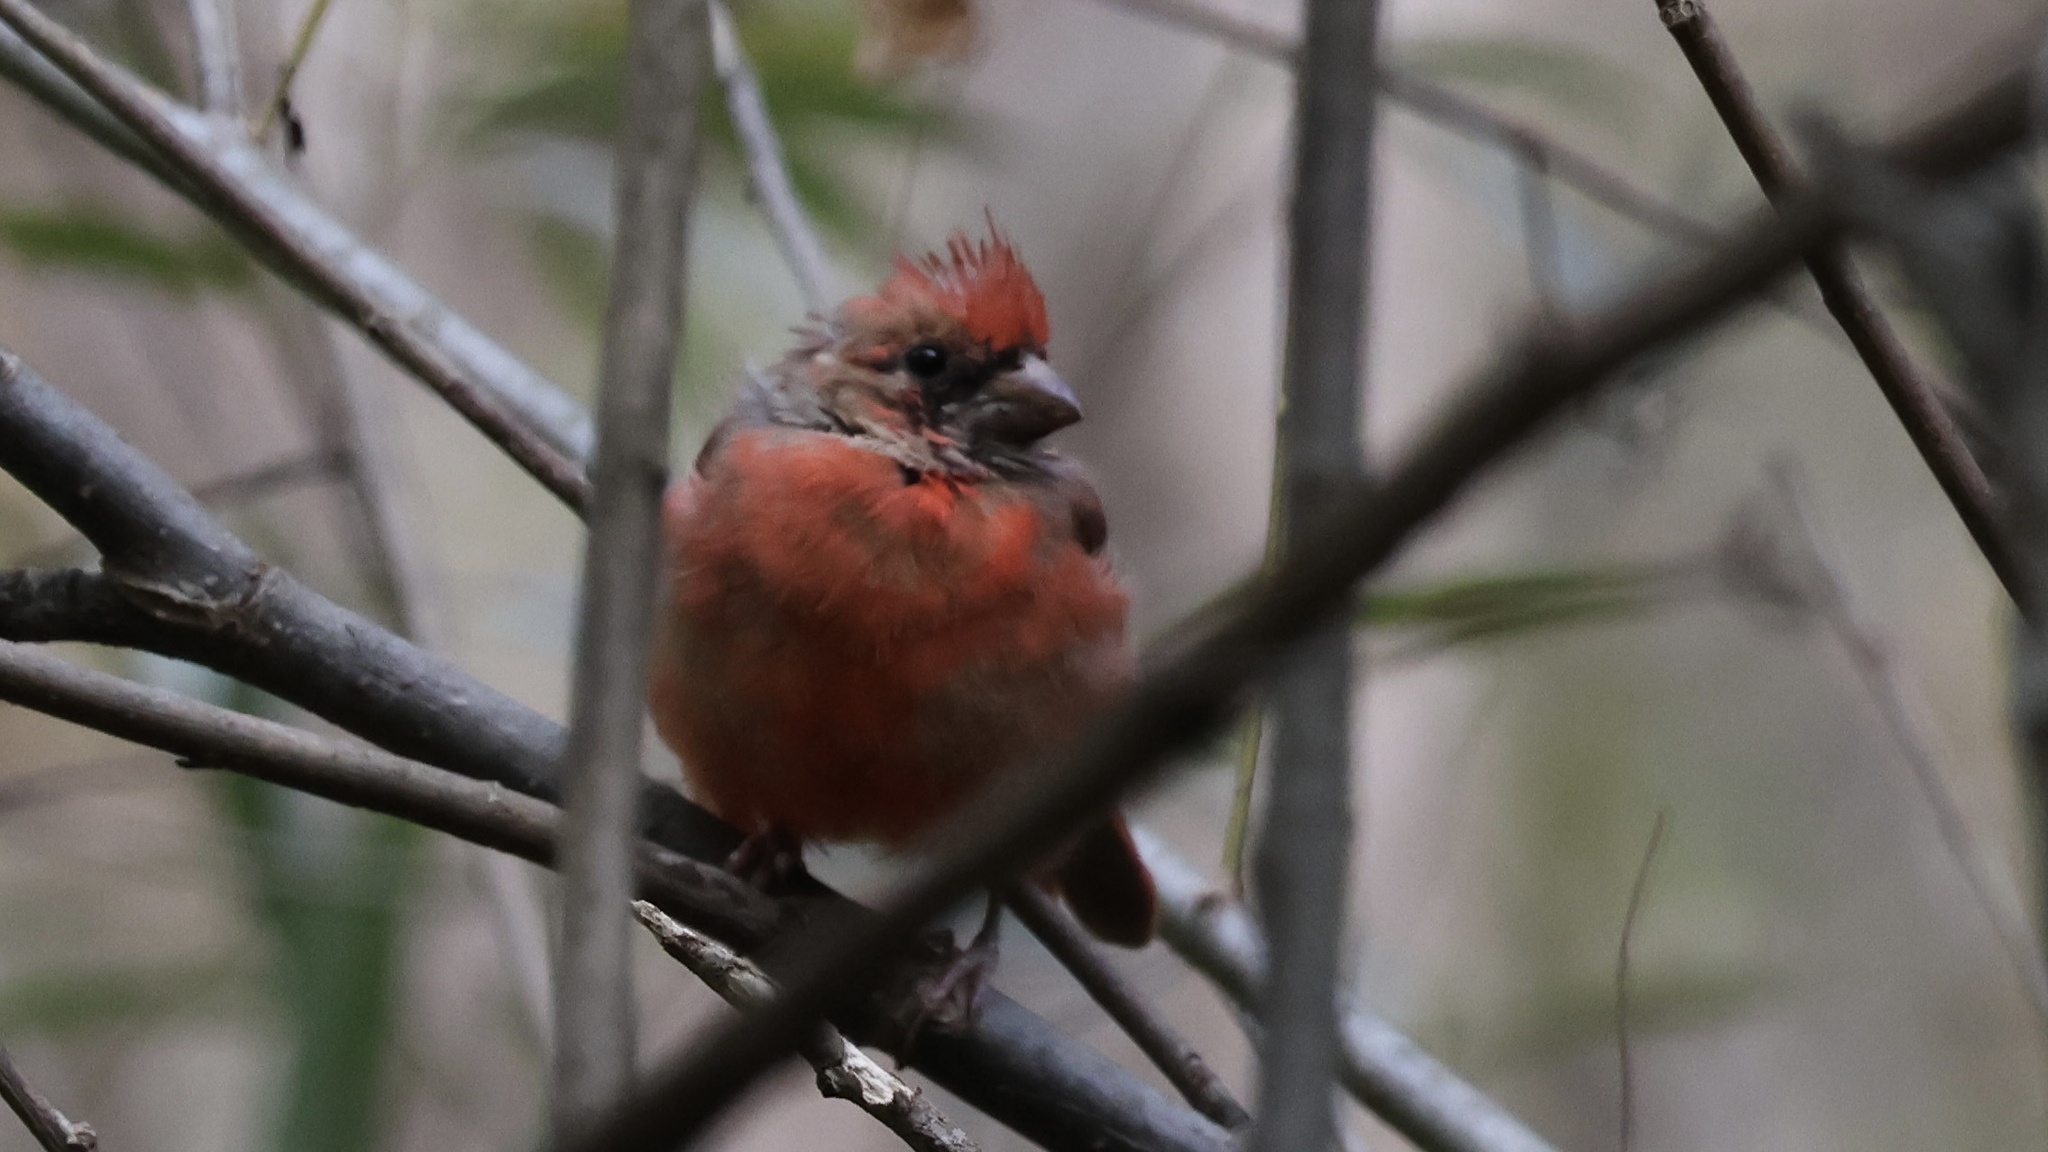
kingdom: Animalia
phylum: Chordata
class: Aves
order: Passeriformes
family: Cardinalidae
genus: Cardinalis
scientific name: Cardinalis cardinalis
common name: Northern cardinal
